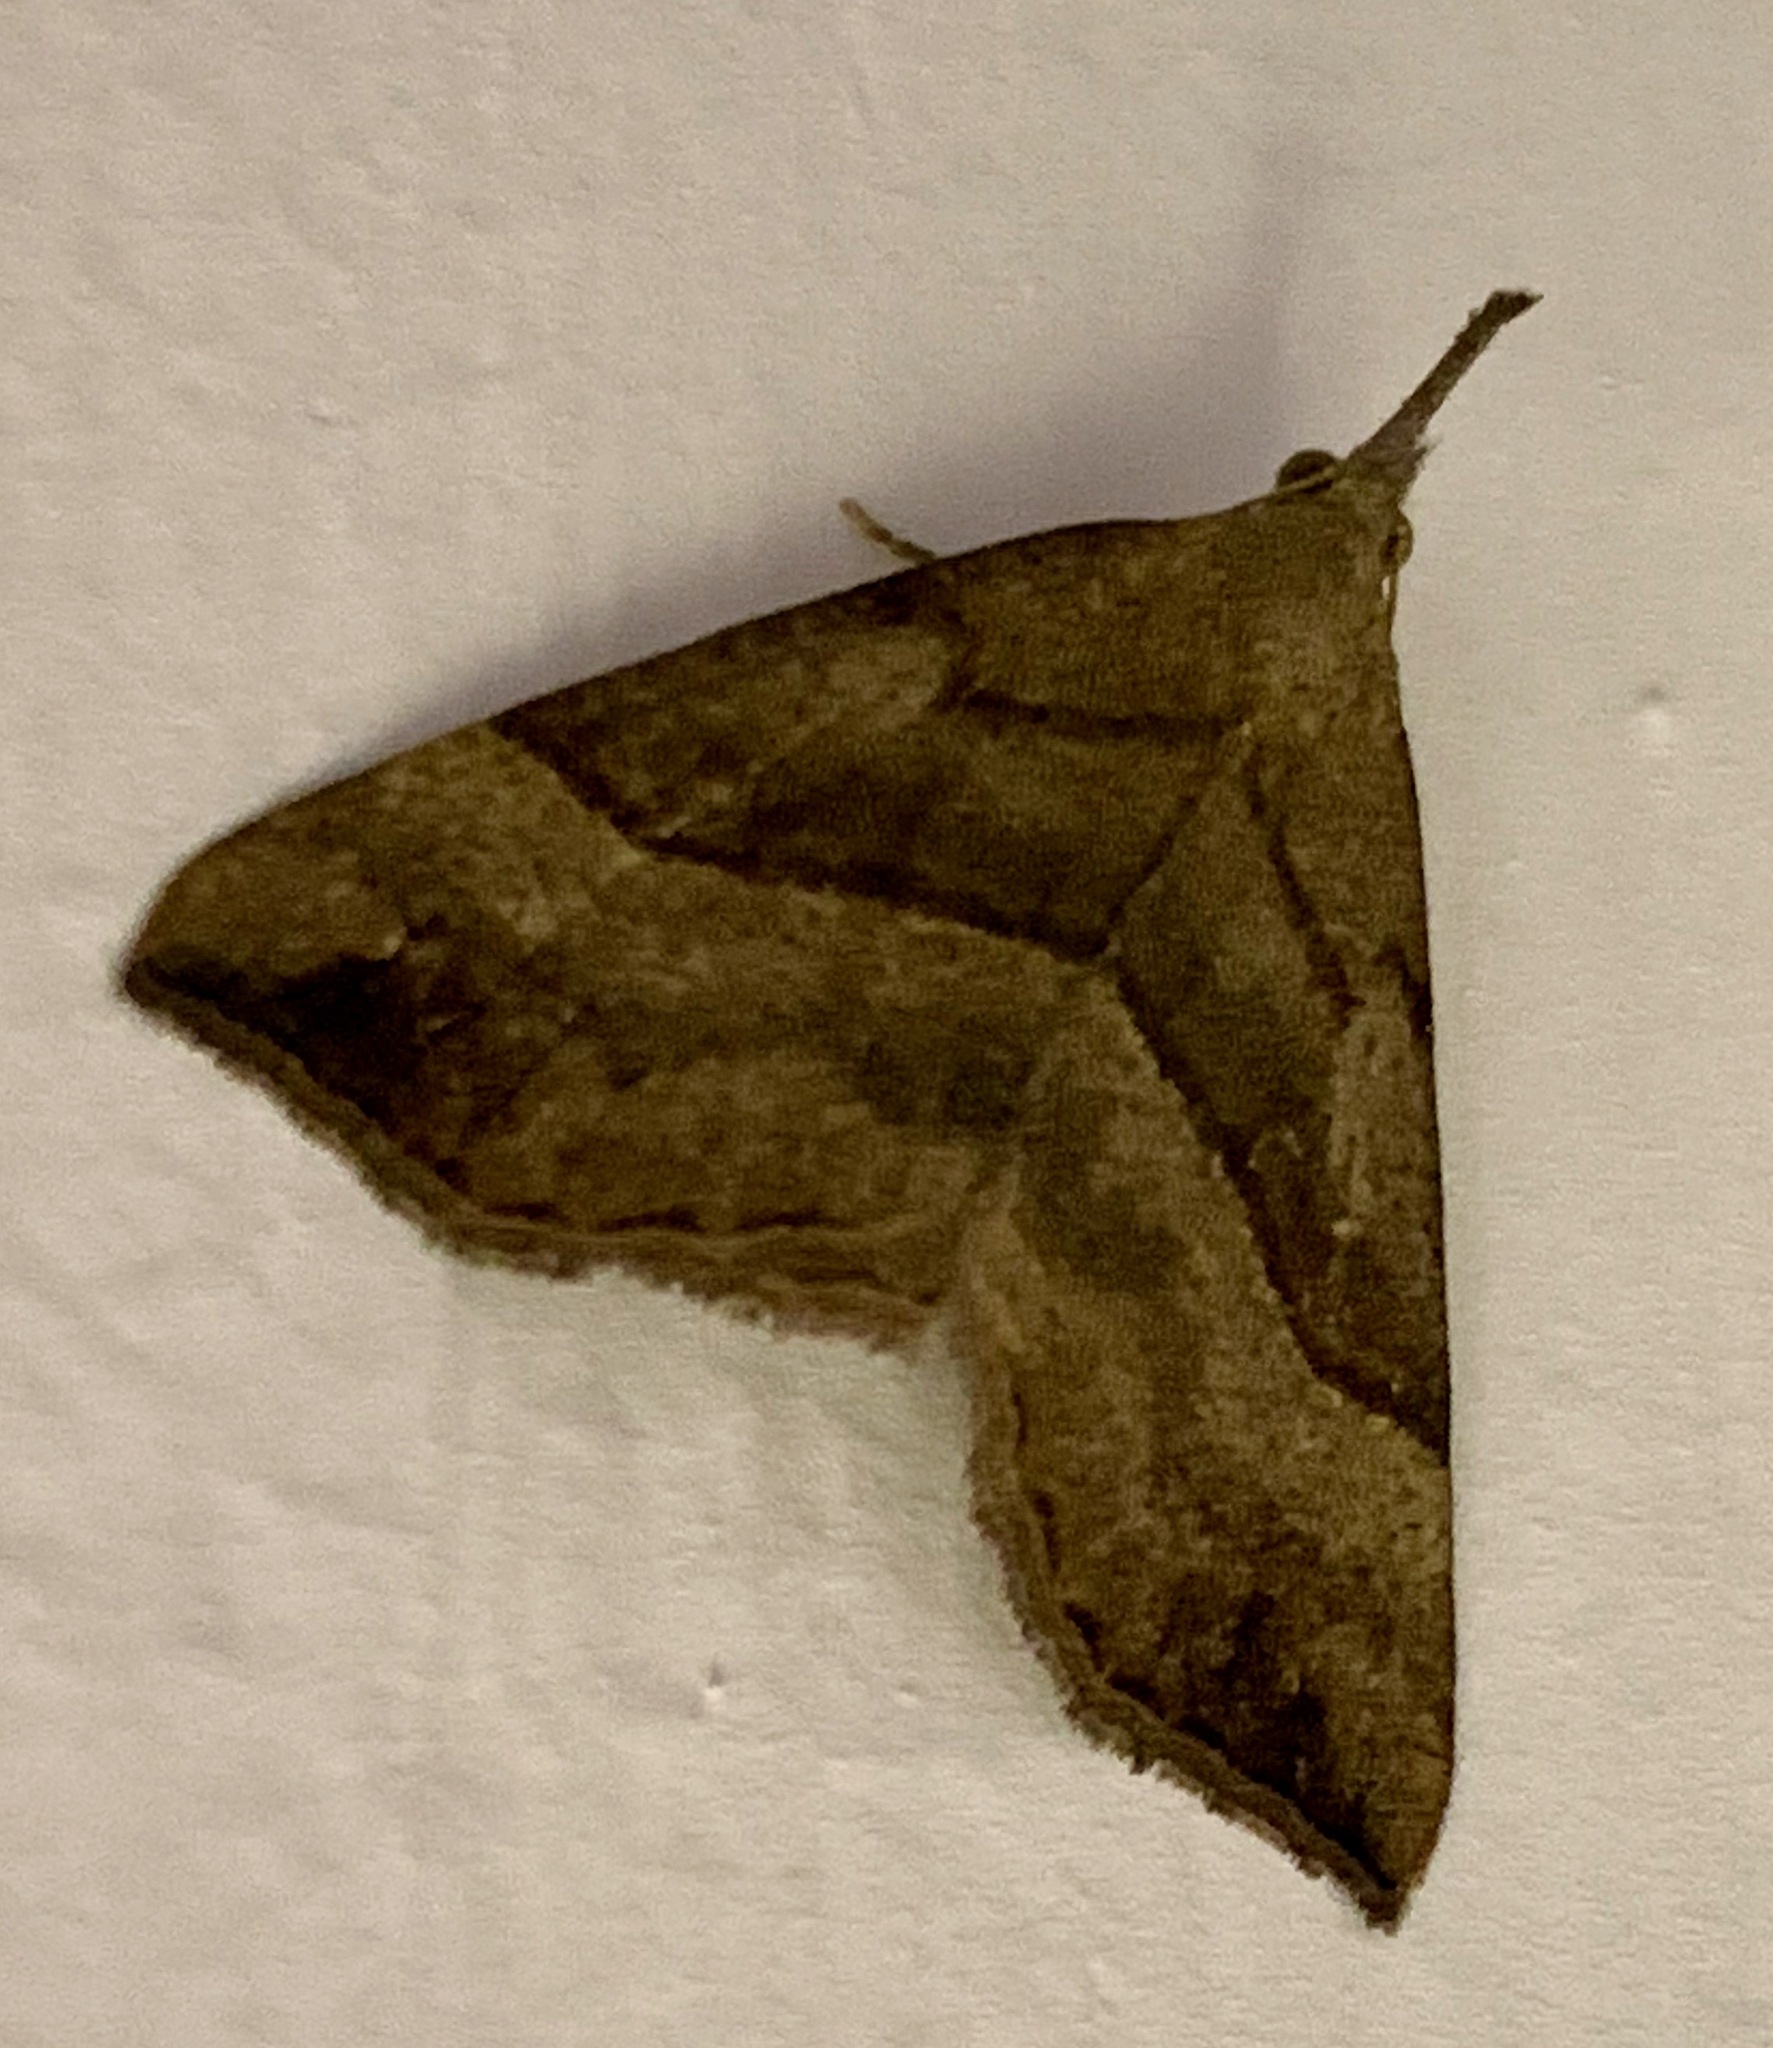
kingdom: Animalia
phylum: Arthropoda
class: Insecta
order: Lepidoptera
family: Erebidae
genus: Hypena
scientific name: Hypena proboscidalis
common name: Snout
